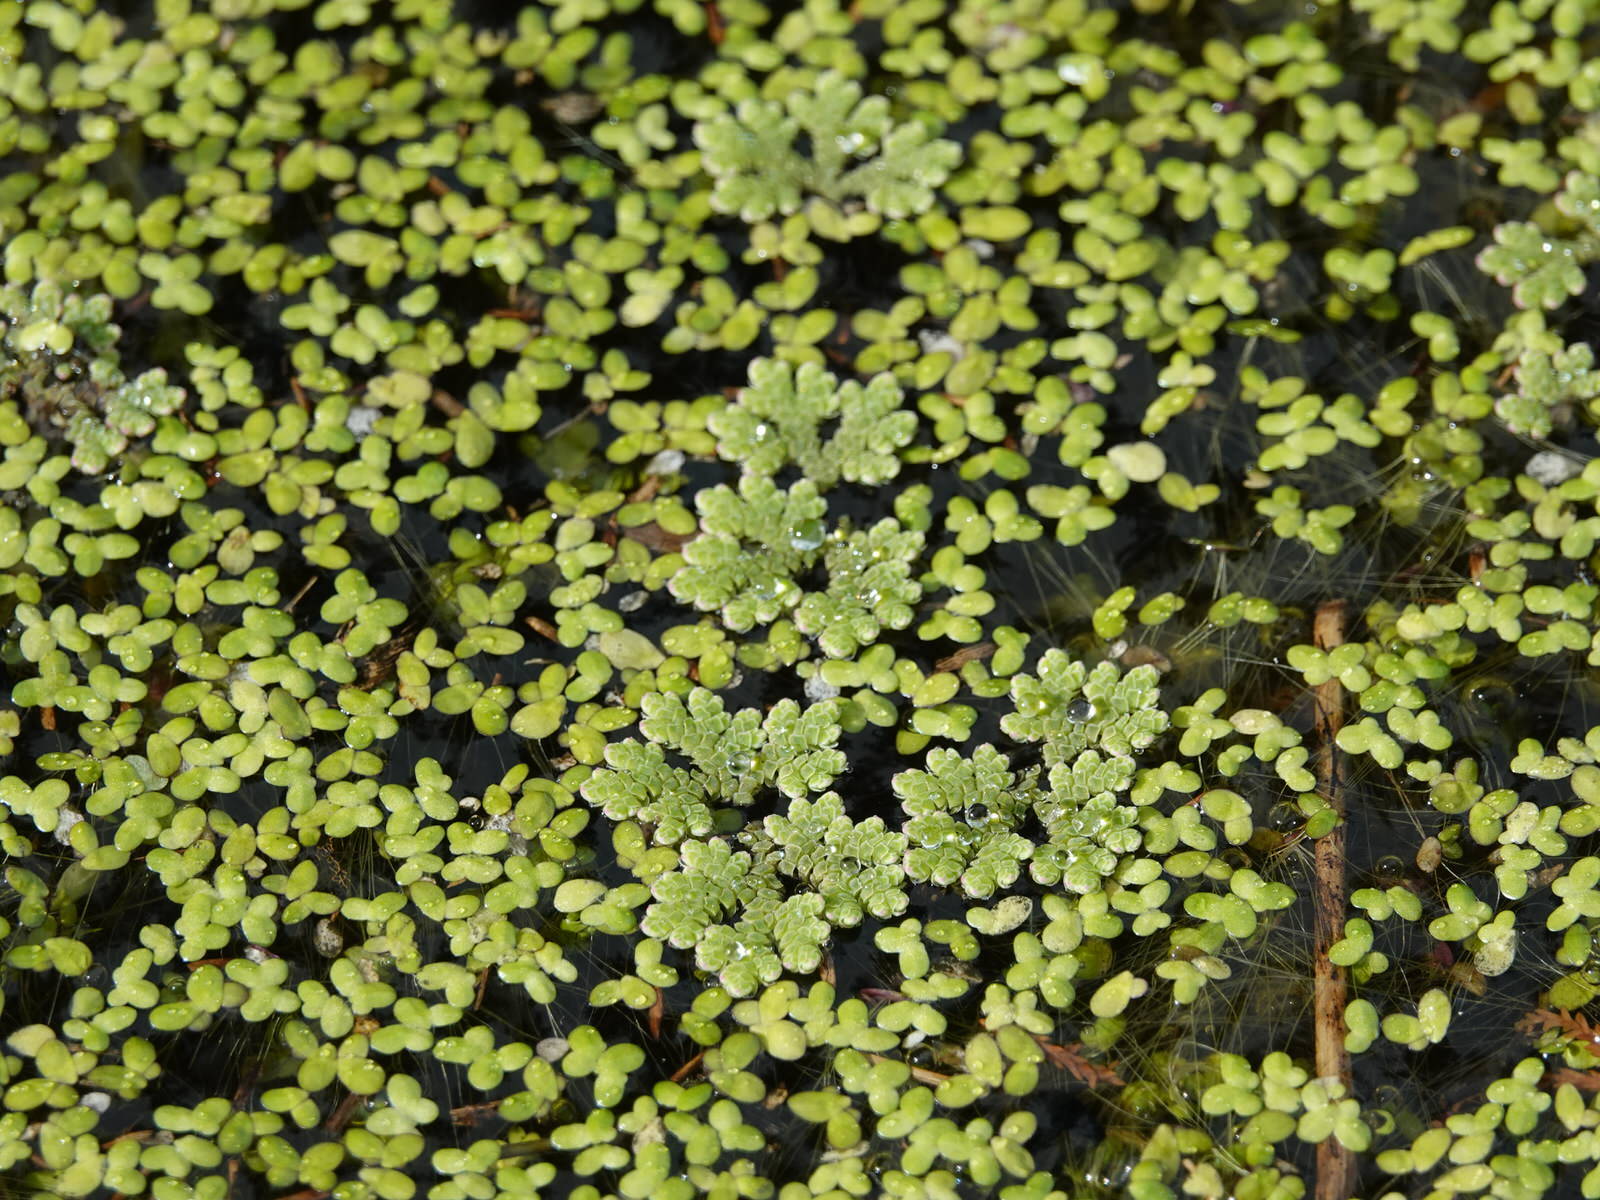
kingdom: Plantae
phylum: Tracheophyta
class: Polypodiopsida
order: Salviniales
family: Salviniaceae
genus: Azolla
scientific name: Azolla rubra
